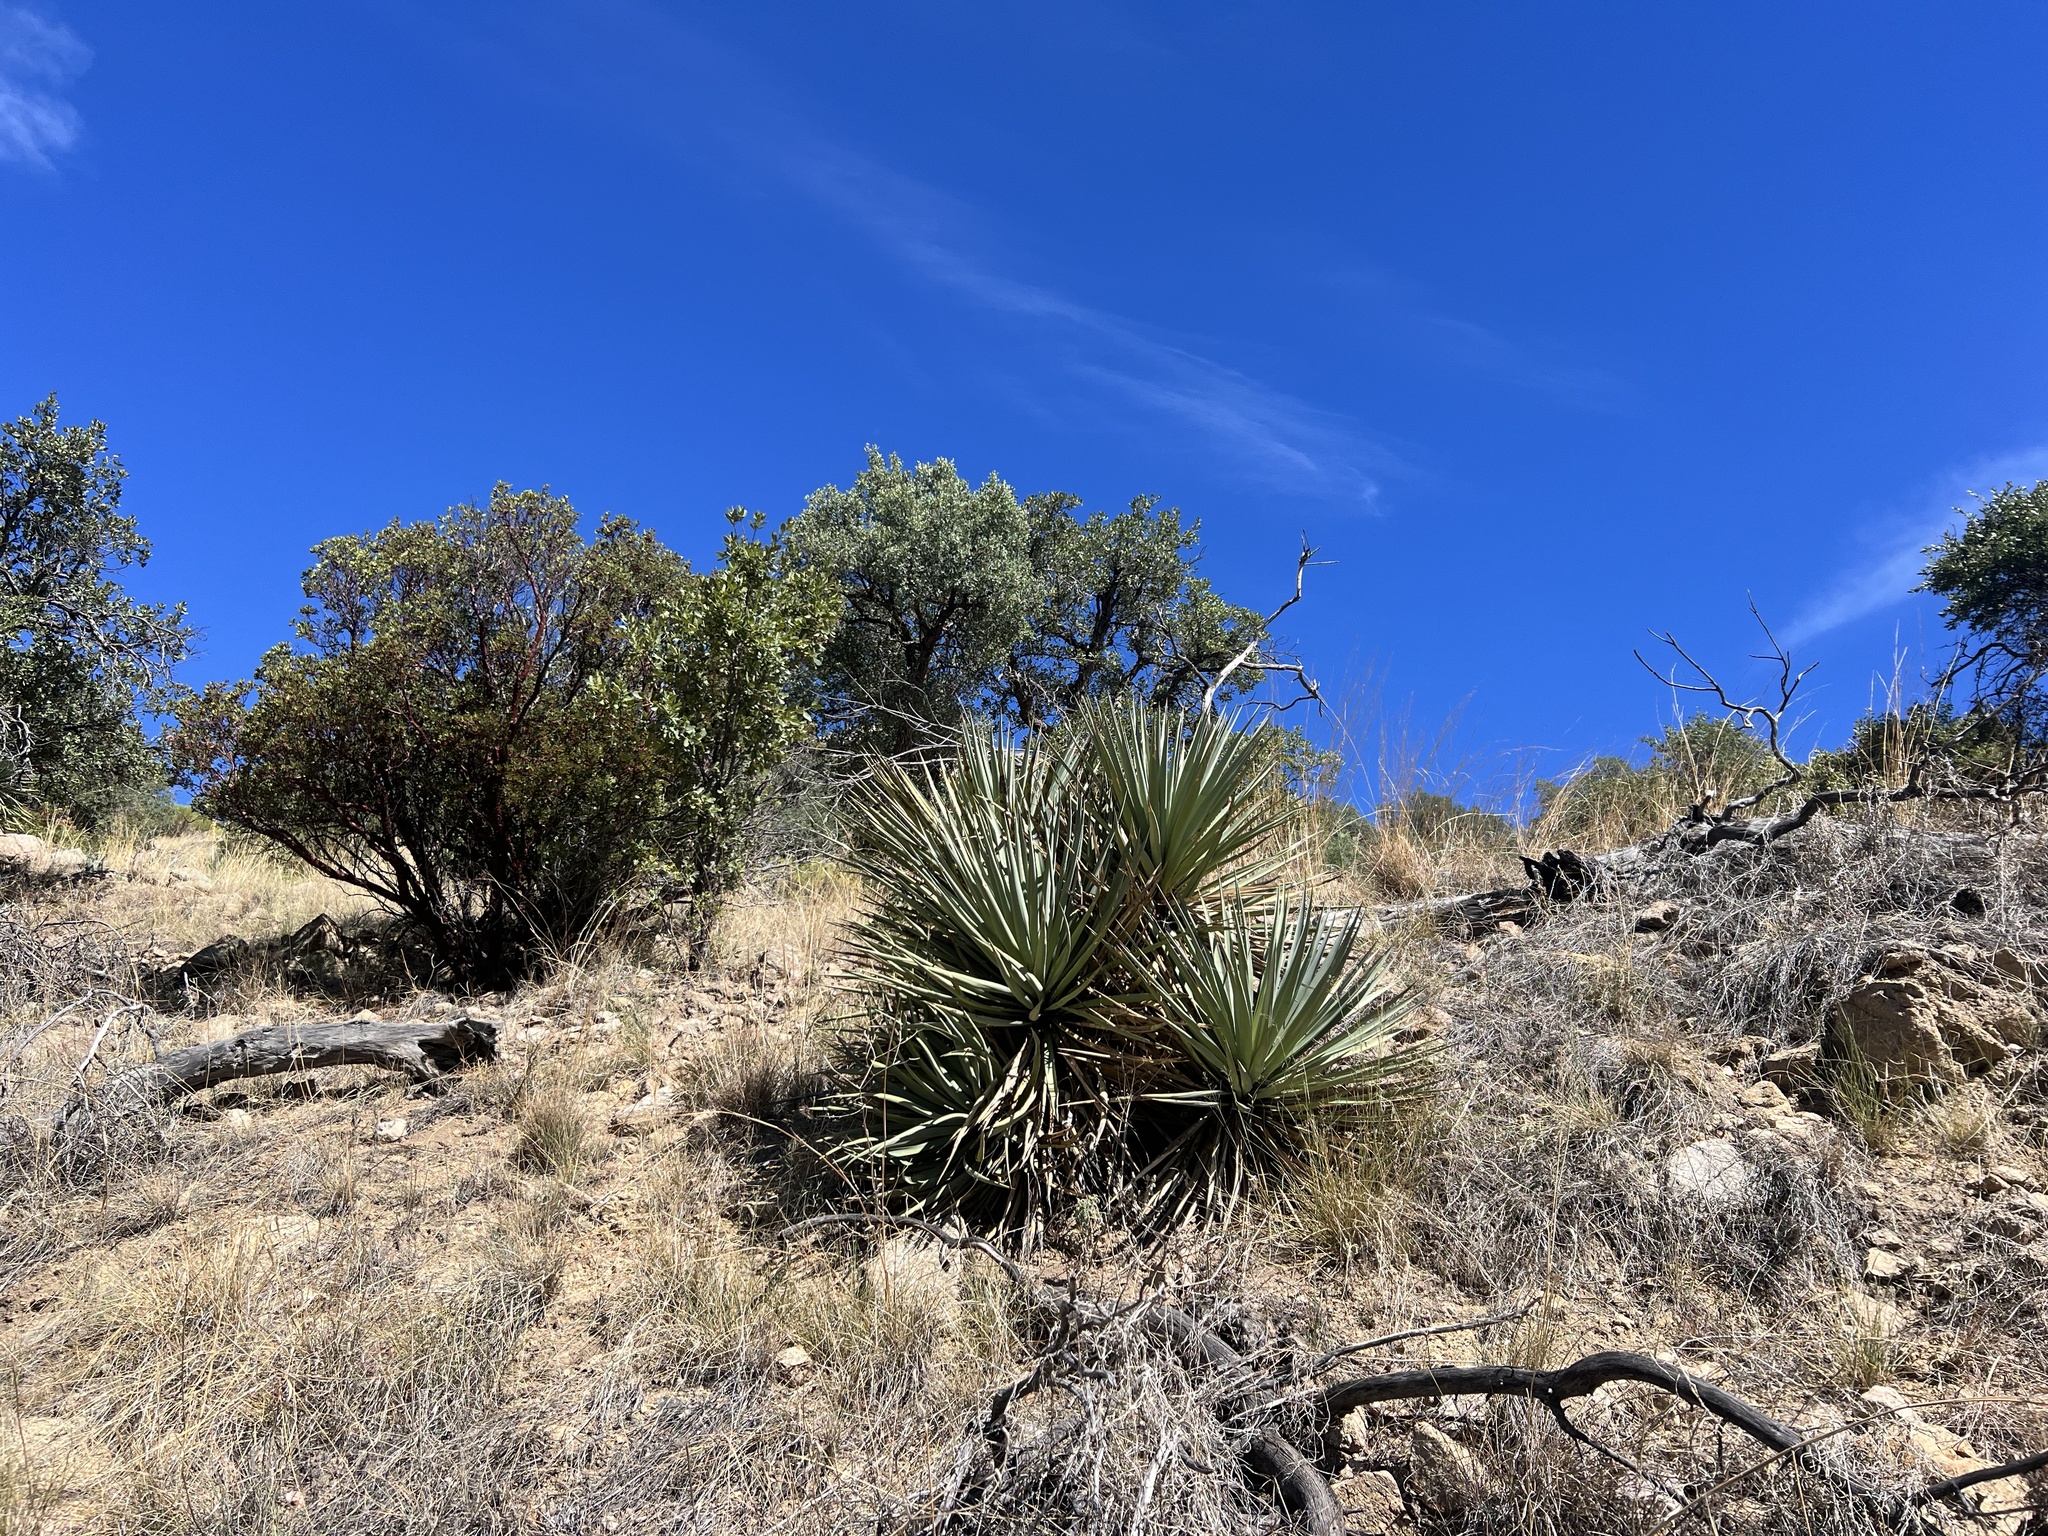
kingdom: Plantae
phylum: Tracheophyta
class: Liliopsida
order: Asparagales
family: Asparagaceae
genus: Yucca
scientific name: Yucca schottii
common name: Hoary yucca
